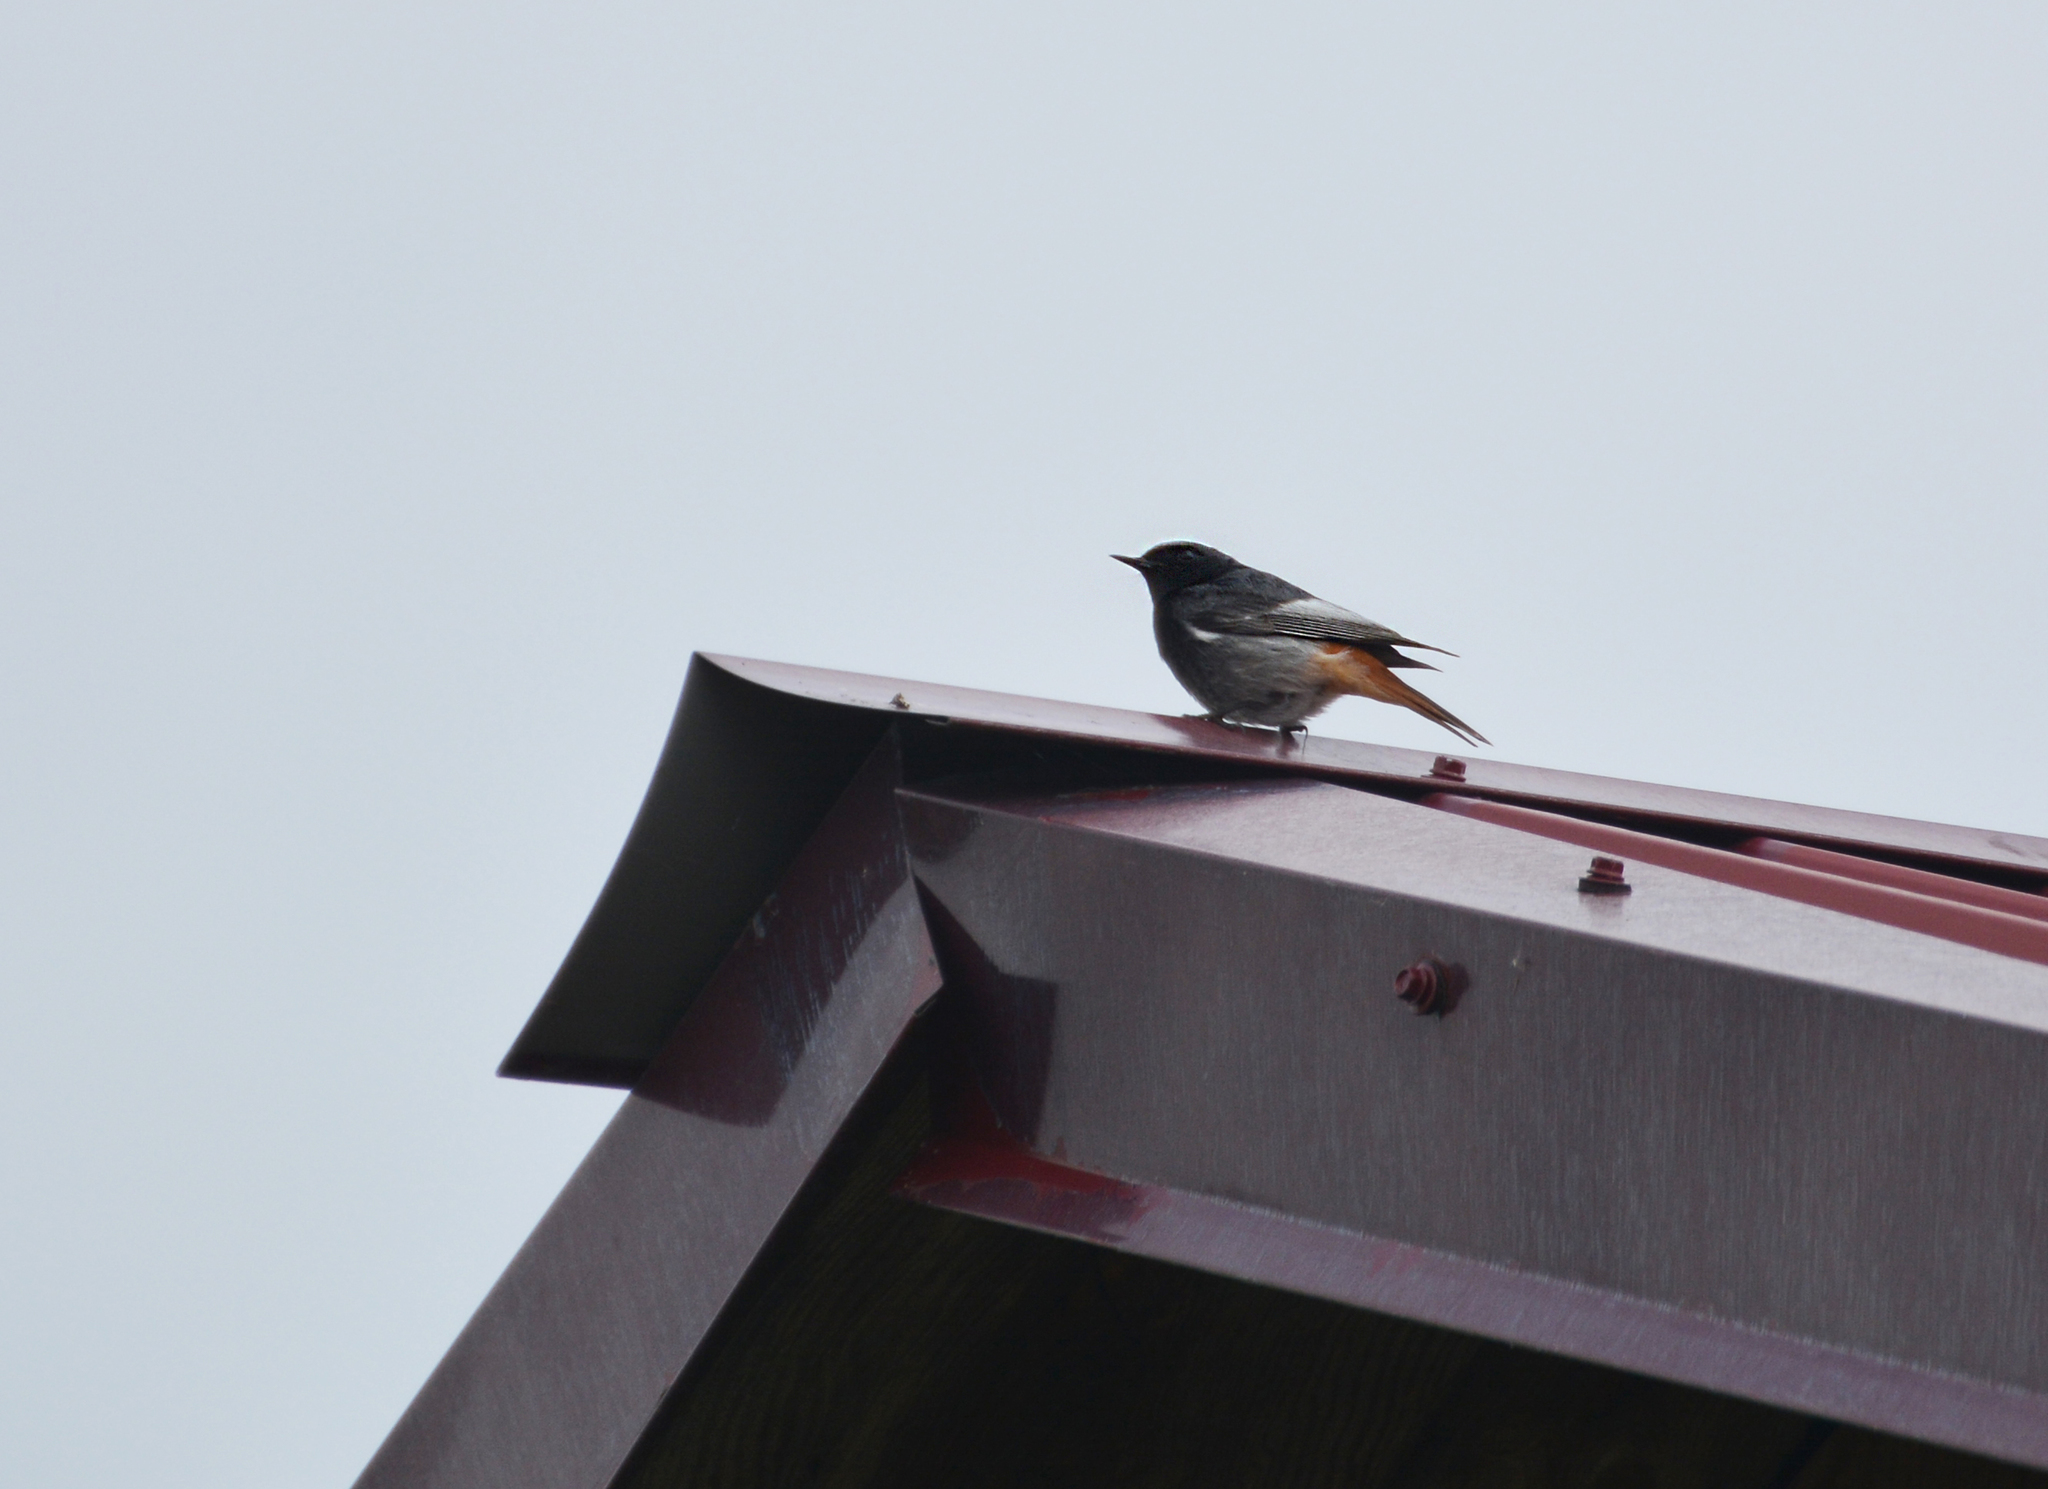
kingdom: Animalia
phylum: Chordata
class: Aves
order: Passeriformes
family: Muscicapidae
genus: Phoenicurus
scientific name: Phoenicurus ochruros
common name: Black redstart
